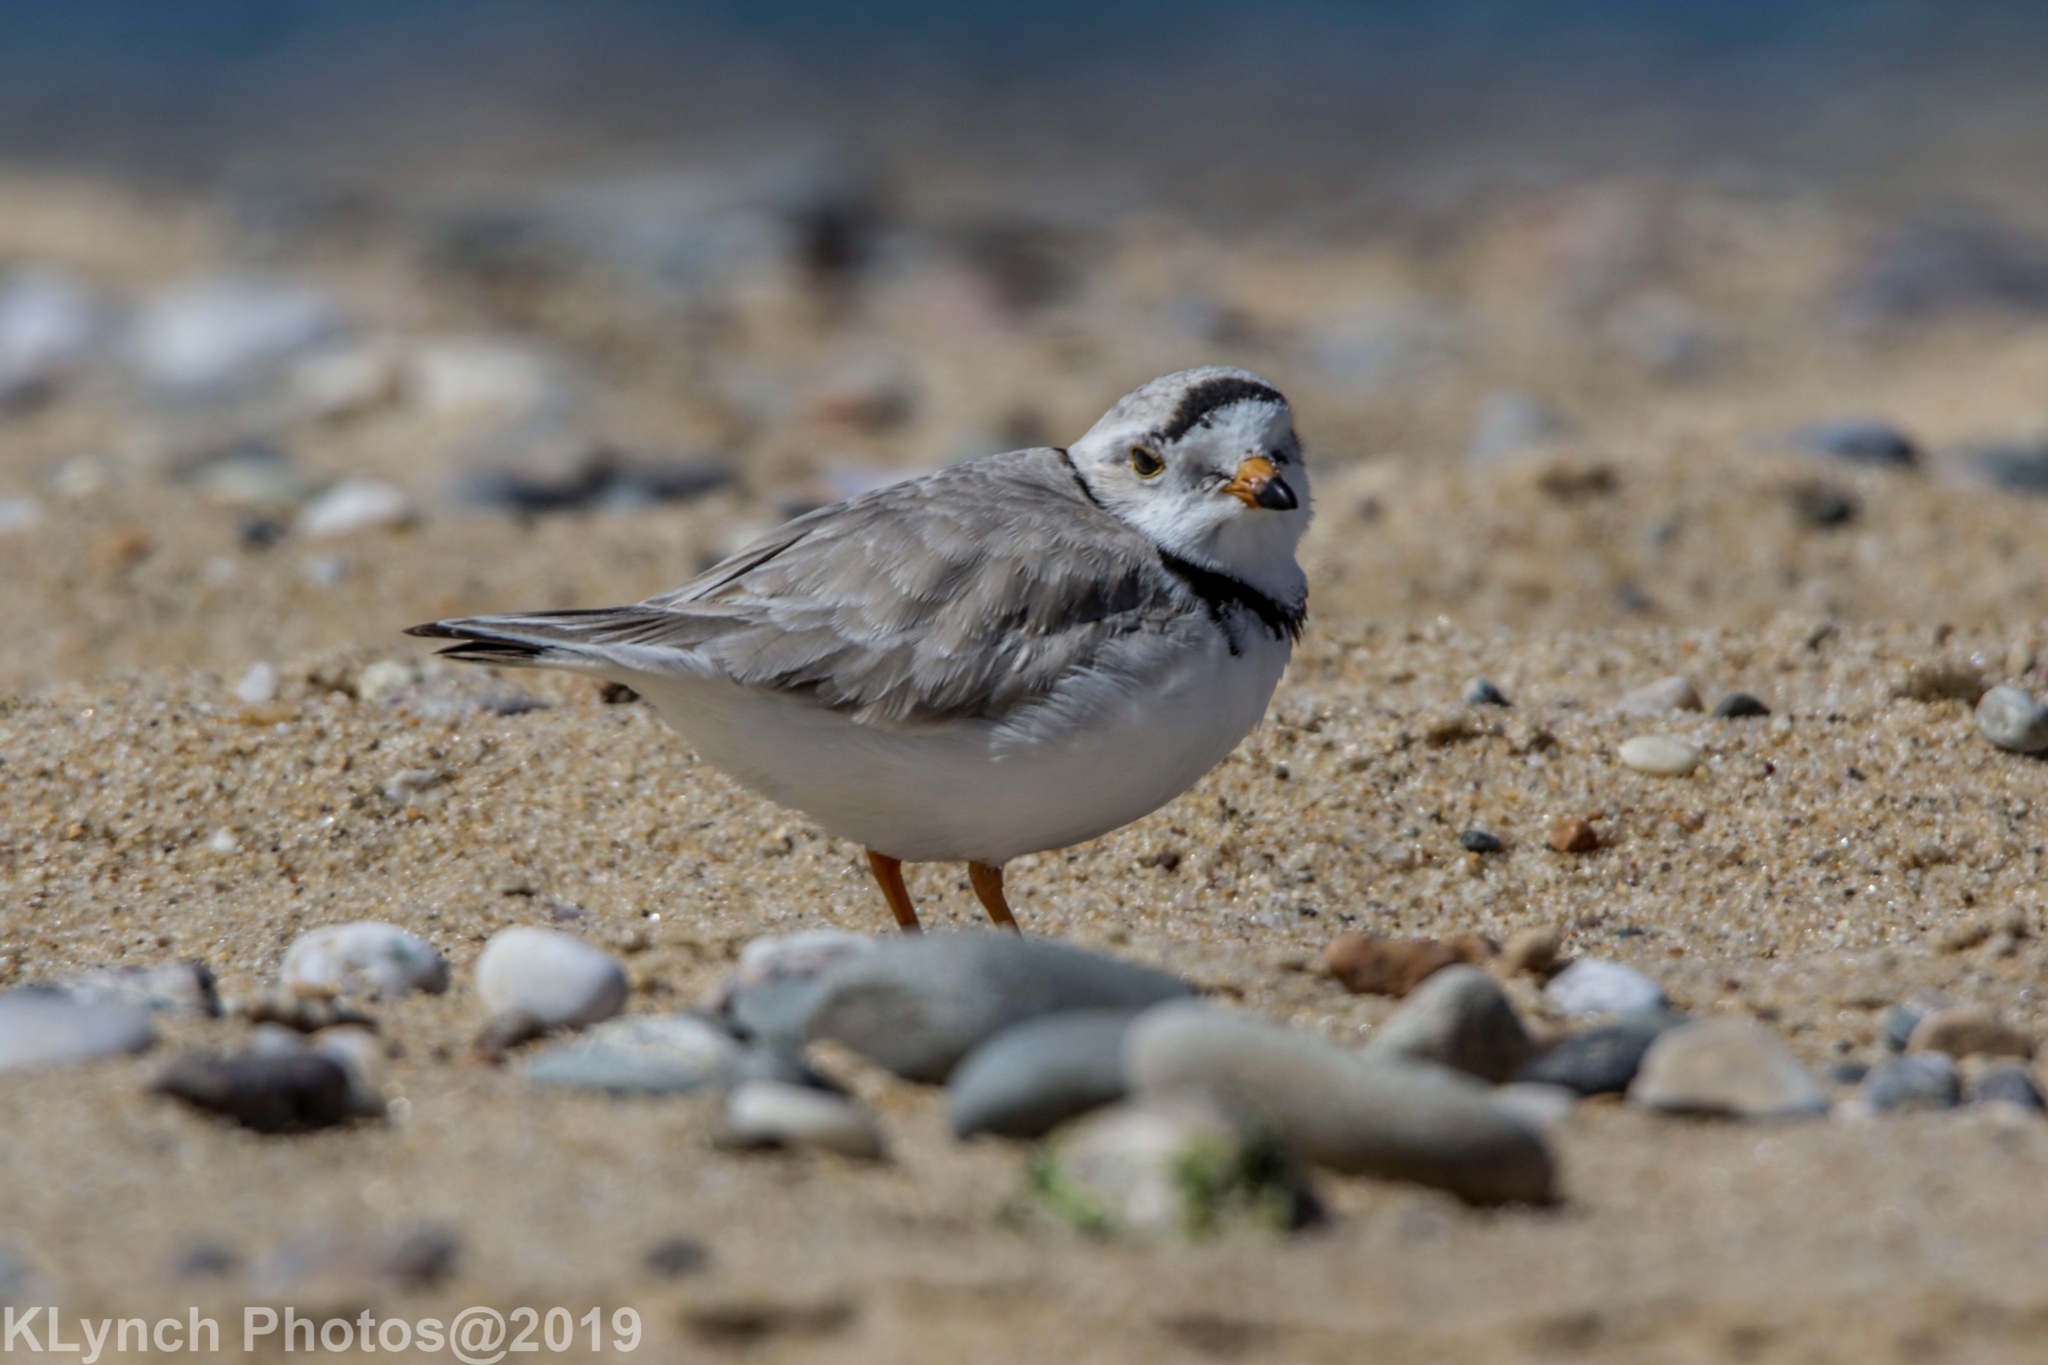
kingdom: Animalia
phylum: Chordata
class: Aves
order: Charadriiformes
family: Charadriidae
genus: Charadrius
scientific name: Charadrius melodus
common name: Piping plover
